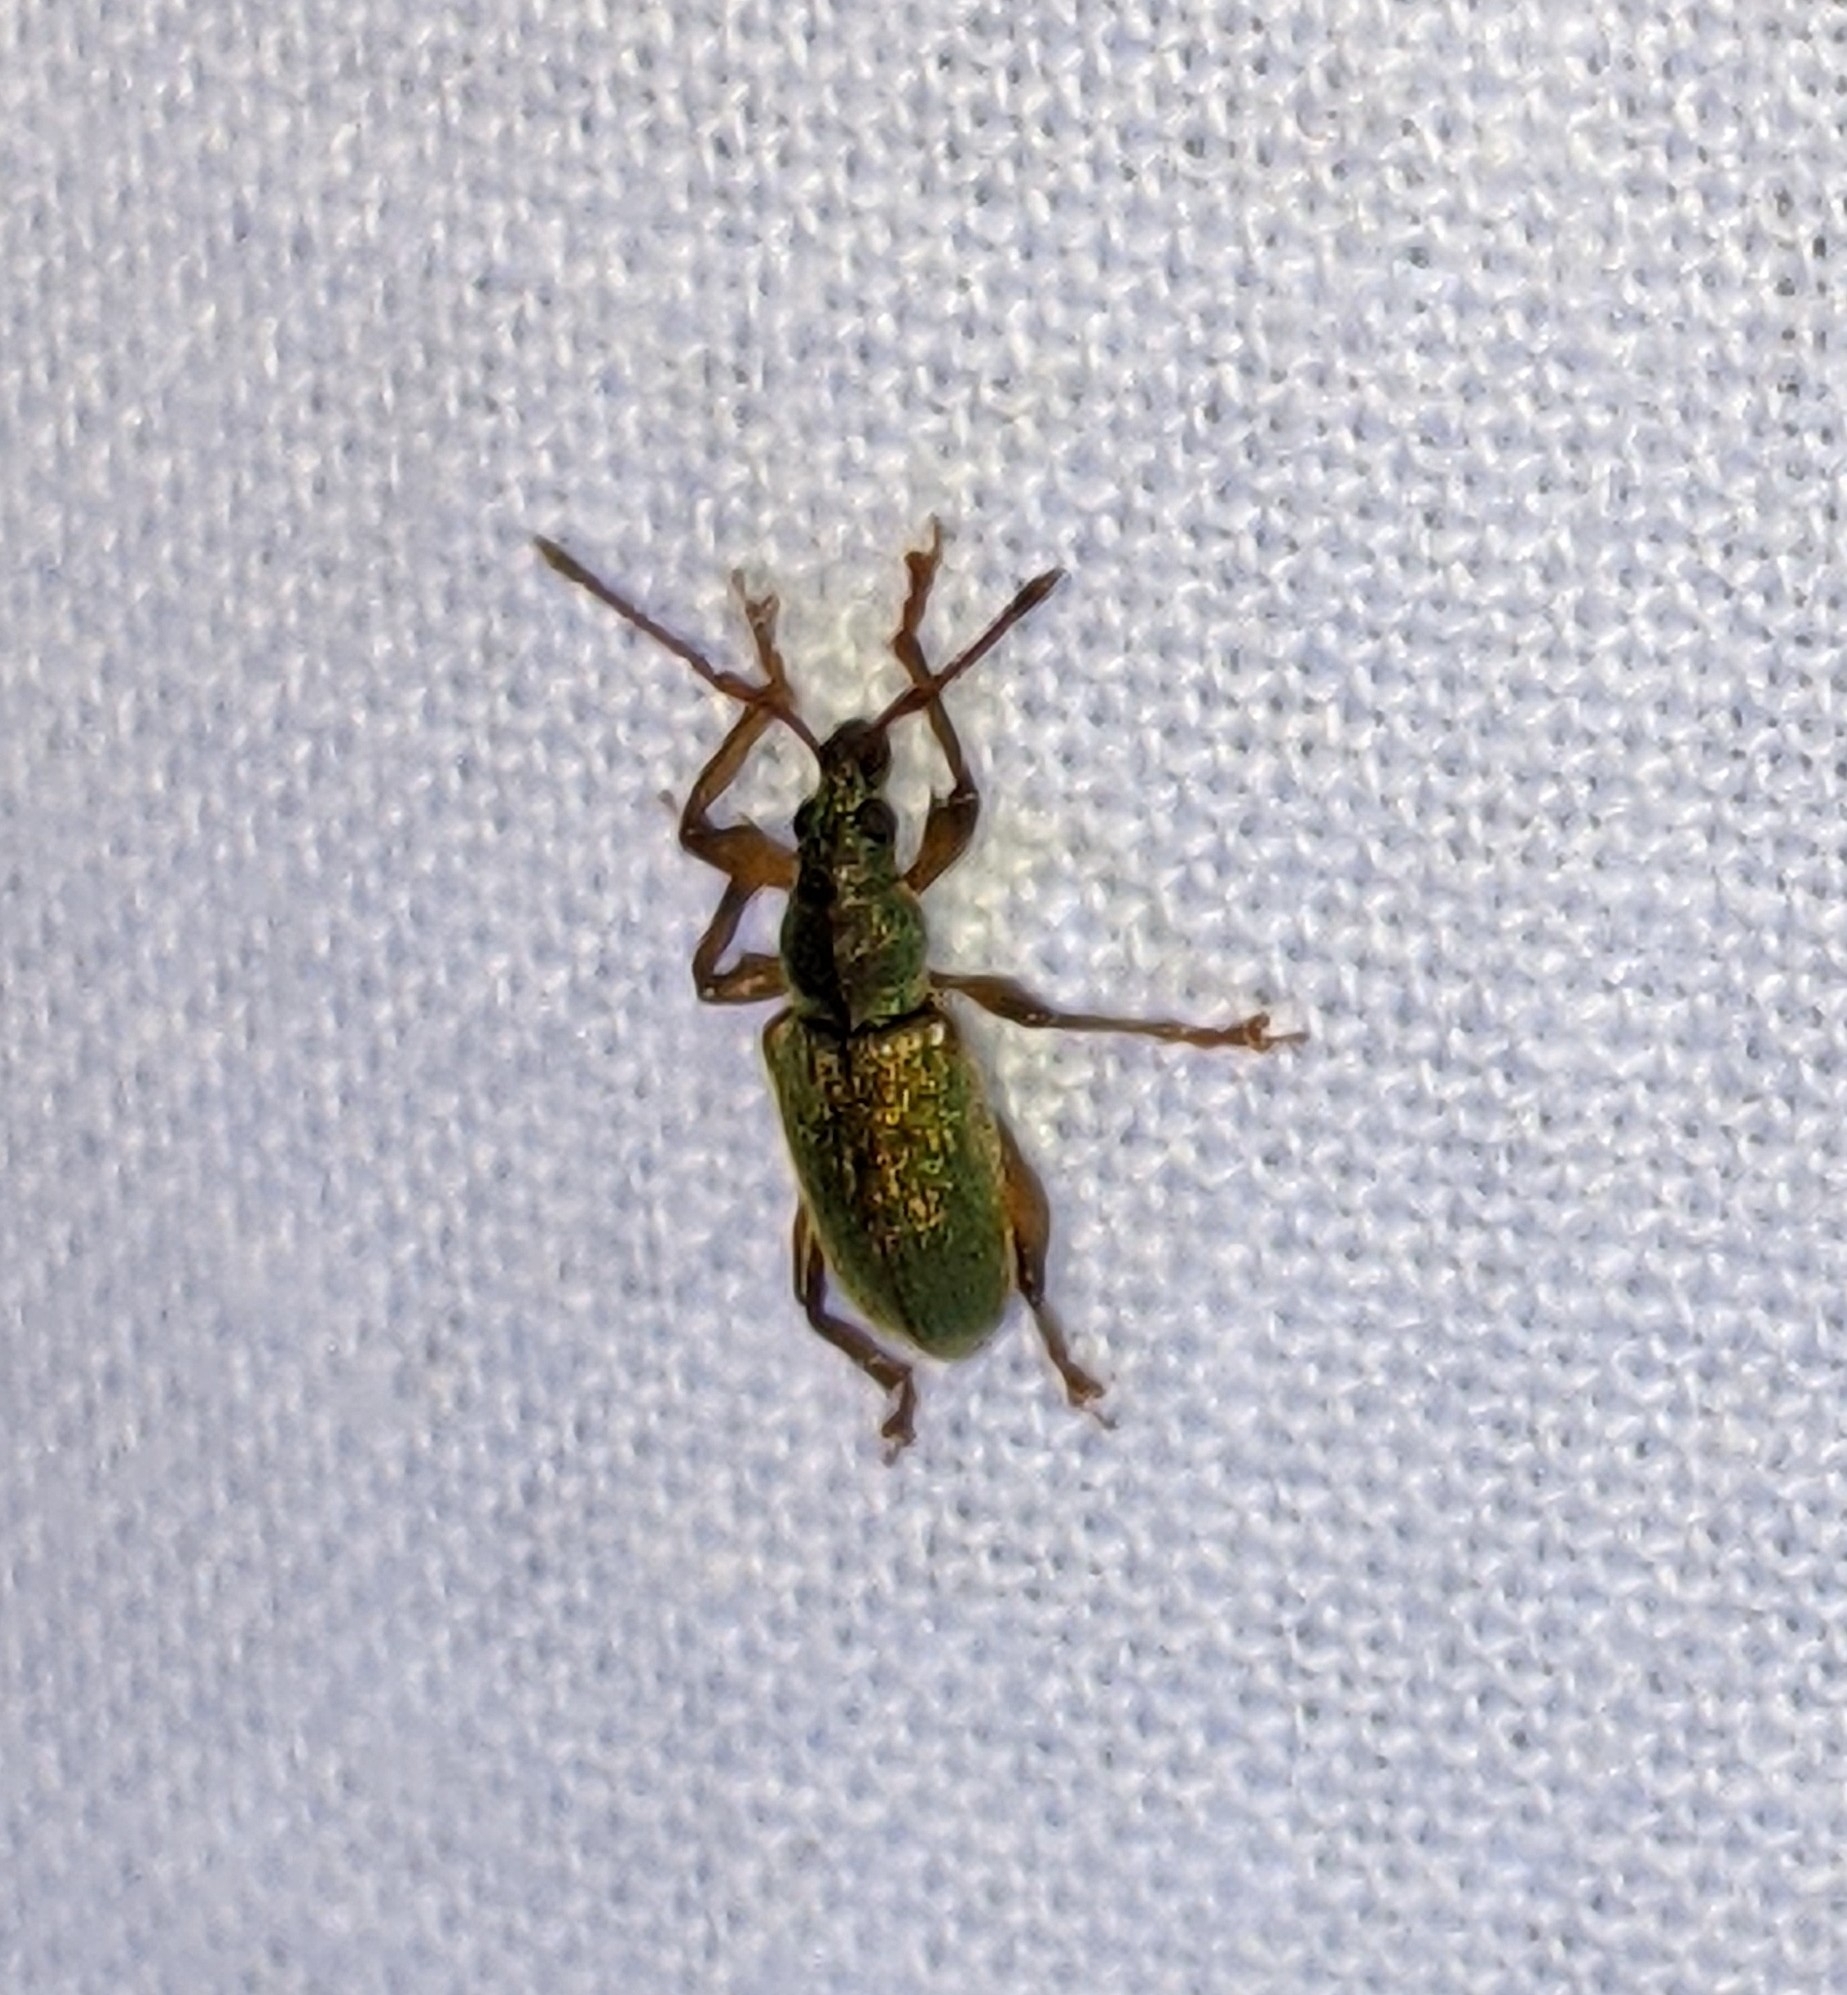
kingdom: Animalia
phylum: Arthropoda
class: Insecta
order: Coleoptera
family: Curculionidae
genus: Parascythopus
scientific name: Parascythopus intrusus
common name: Weevil
